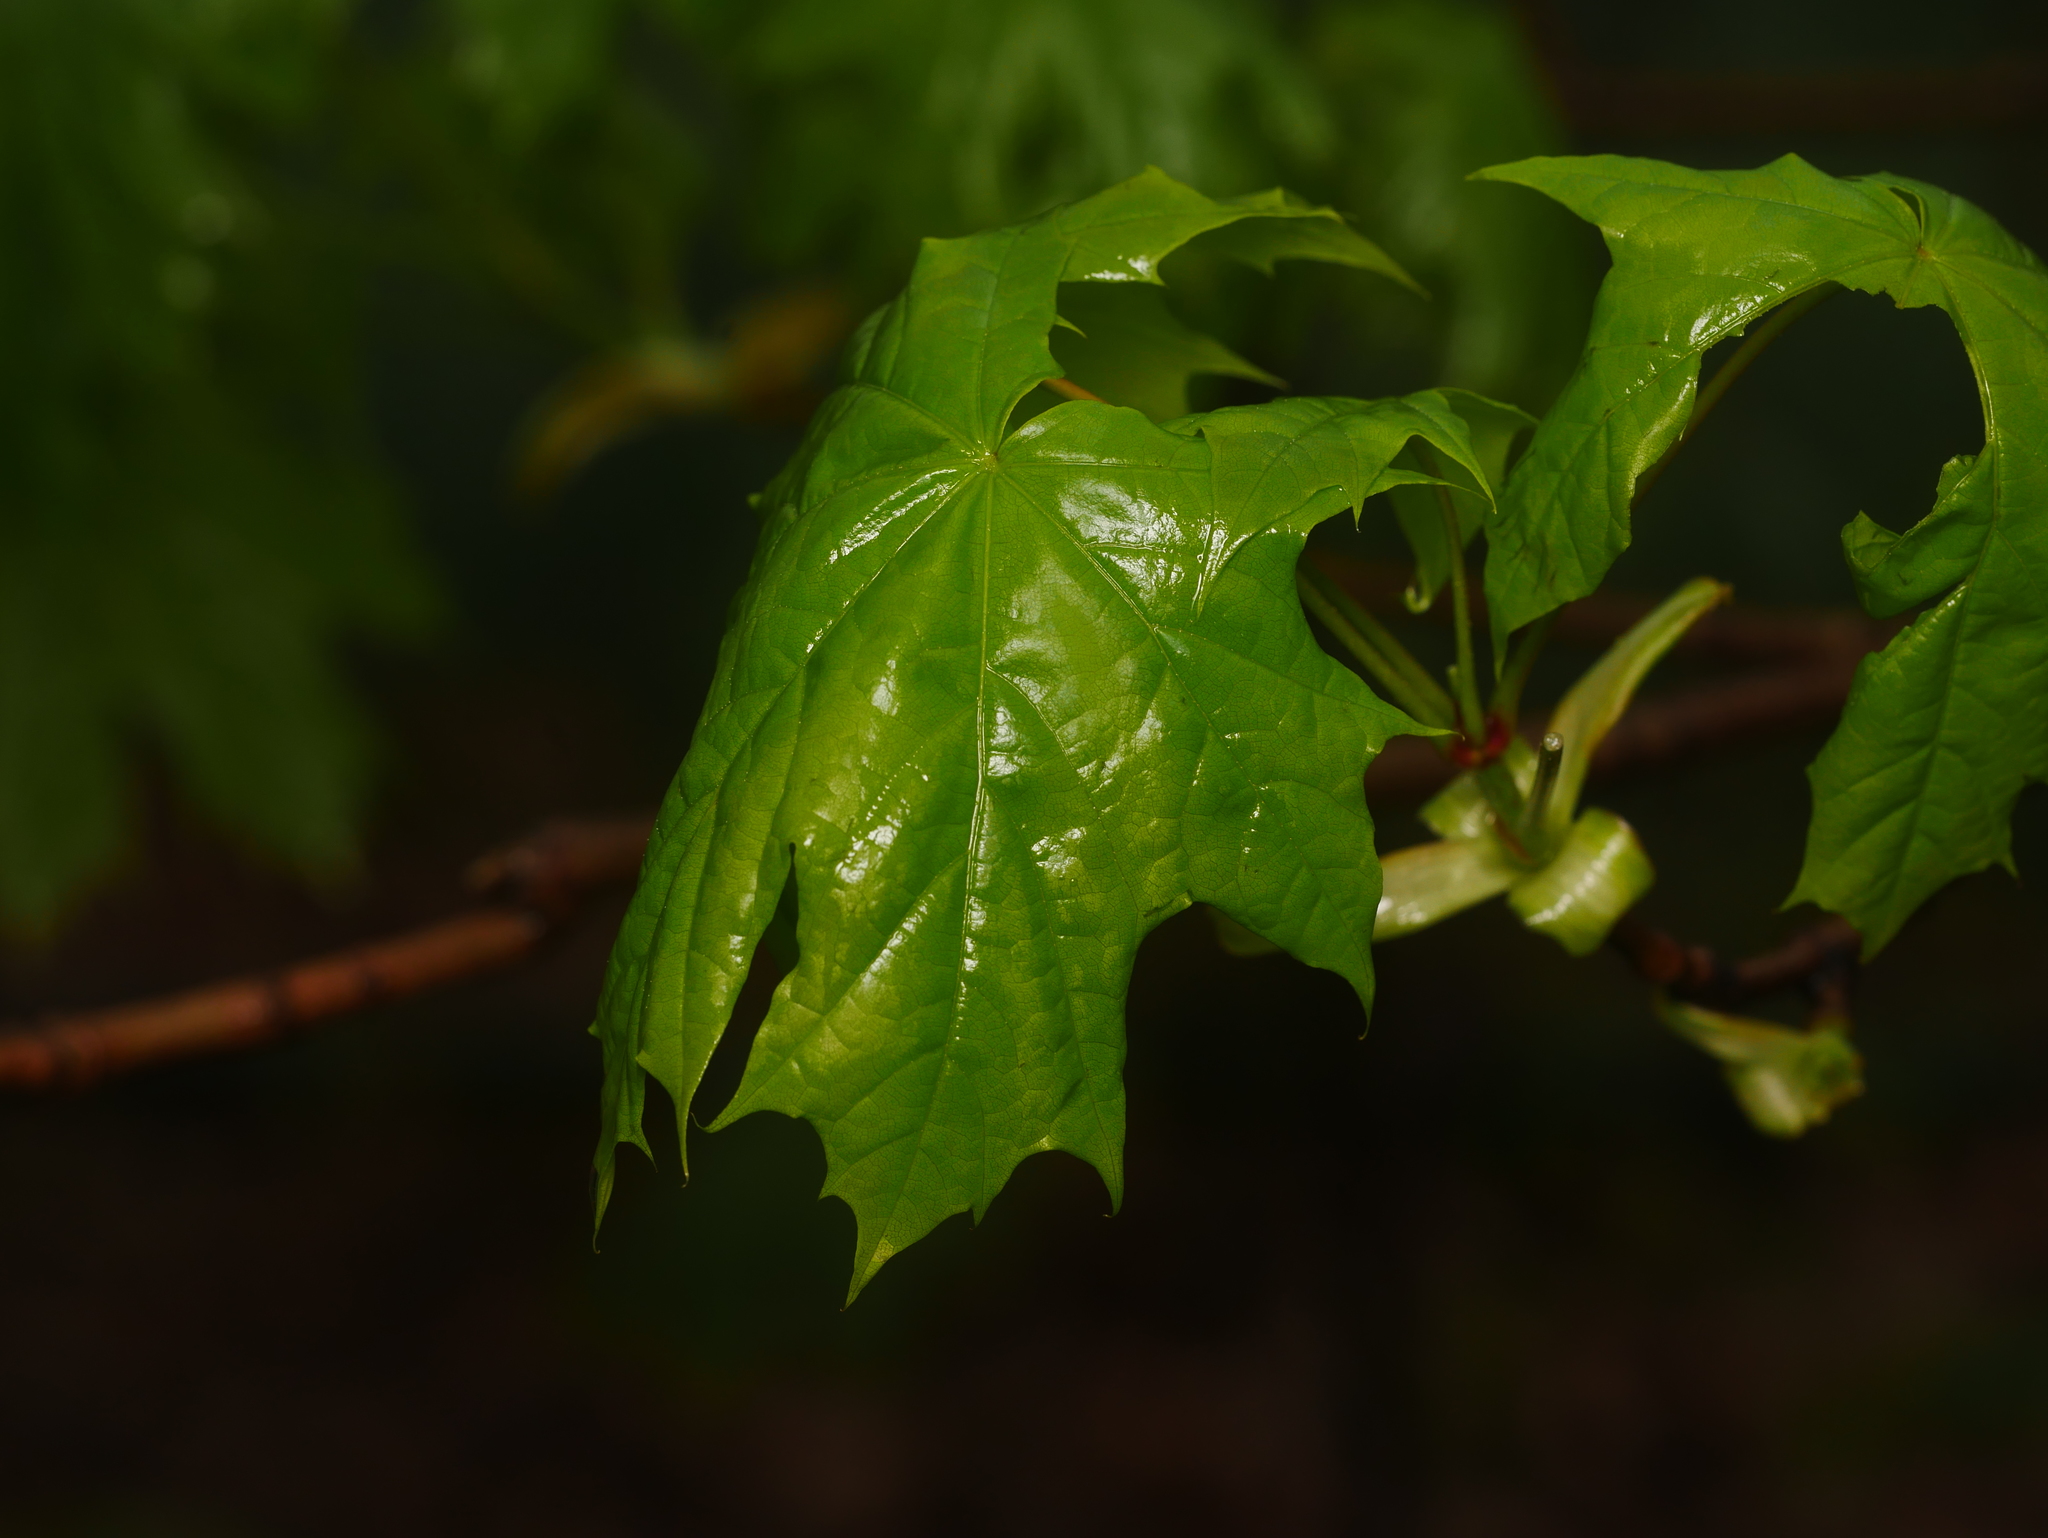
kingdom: Plantae
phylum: Tracheophyta
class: Magnoliopsida
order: Sapindales
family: Sapindaceae
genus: Acer
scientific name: Acer platanoides
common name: Norway maple
